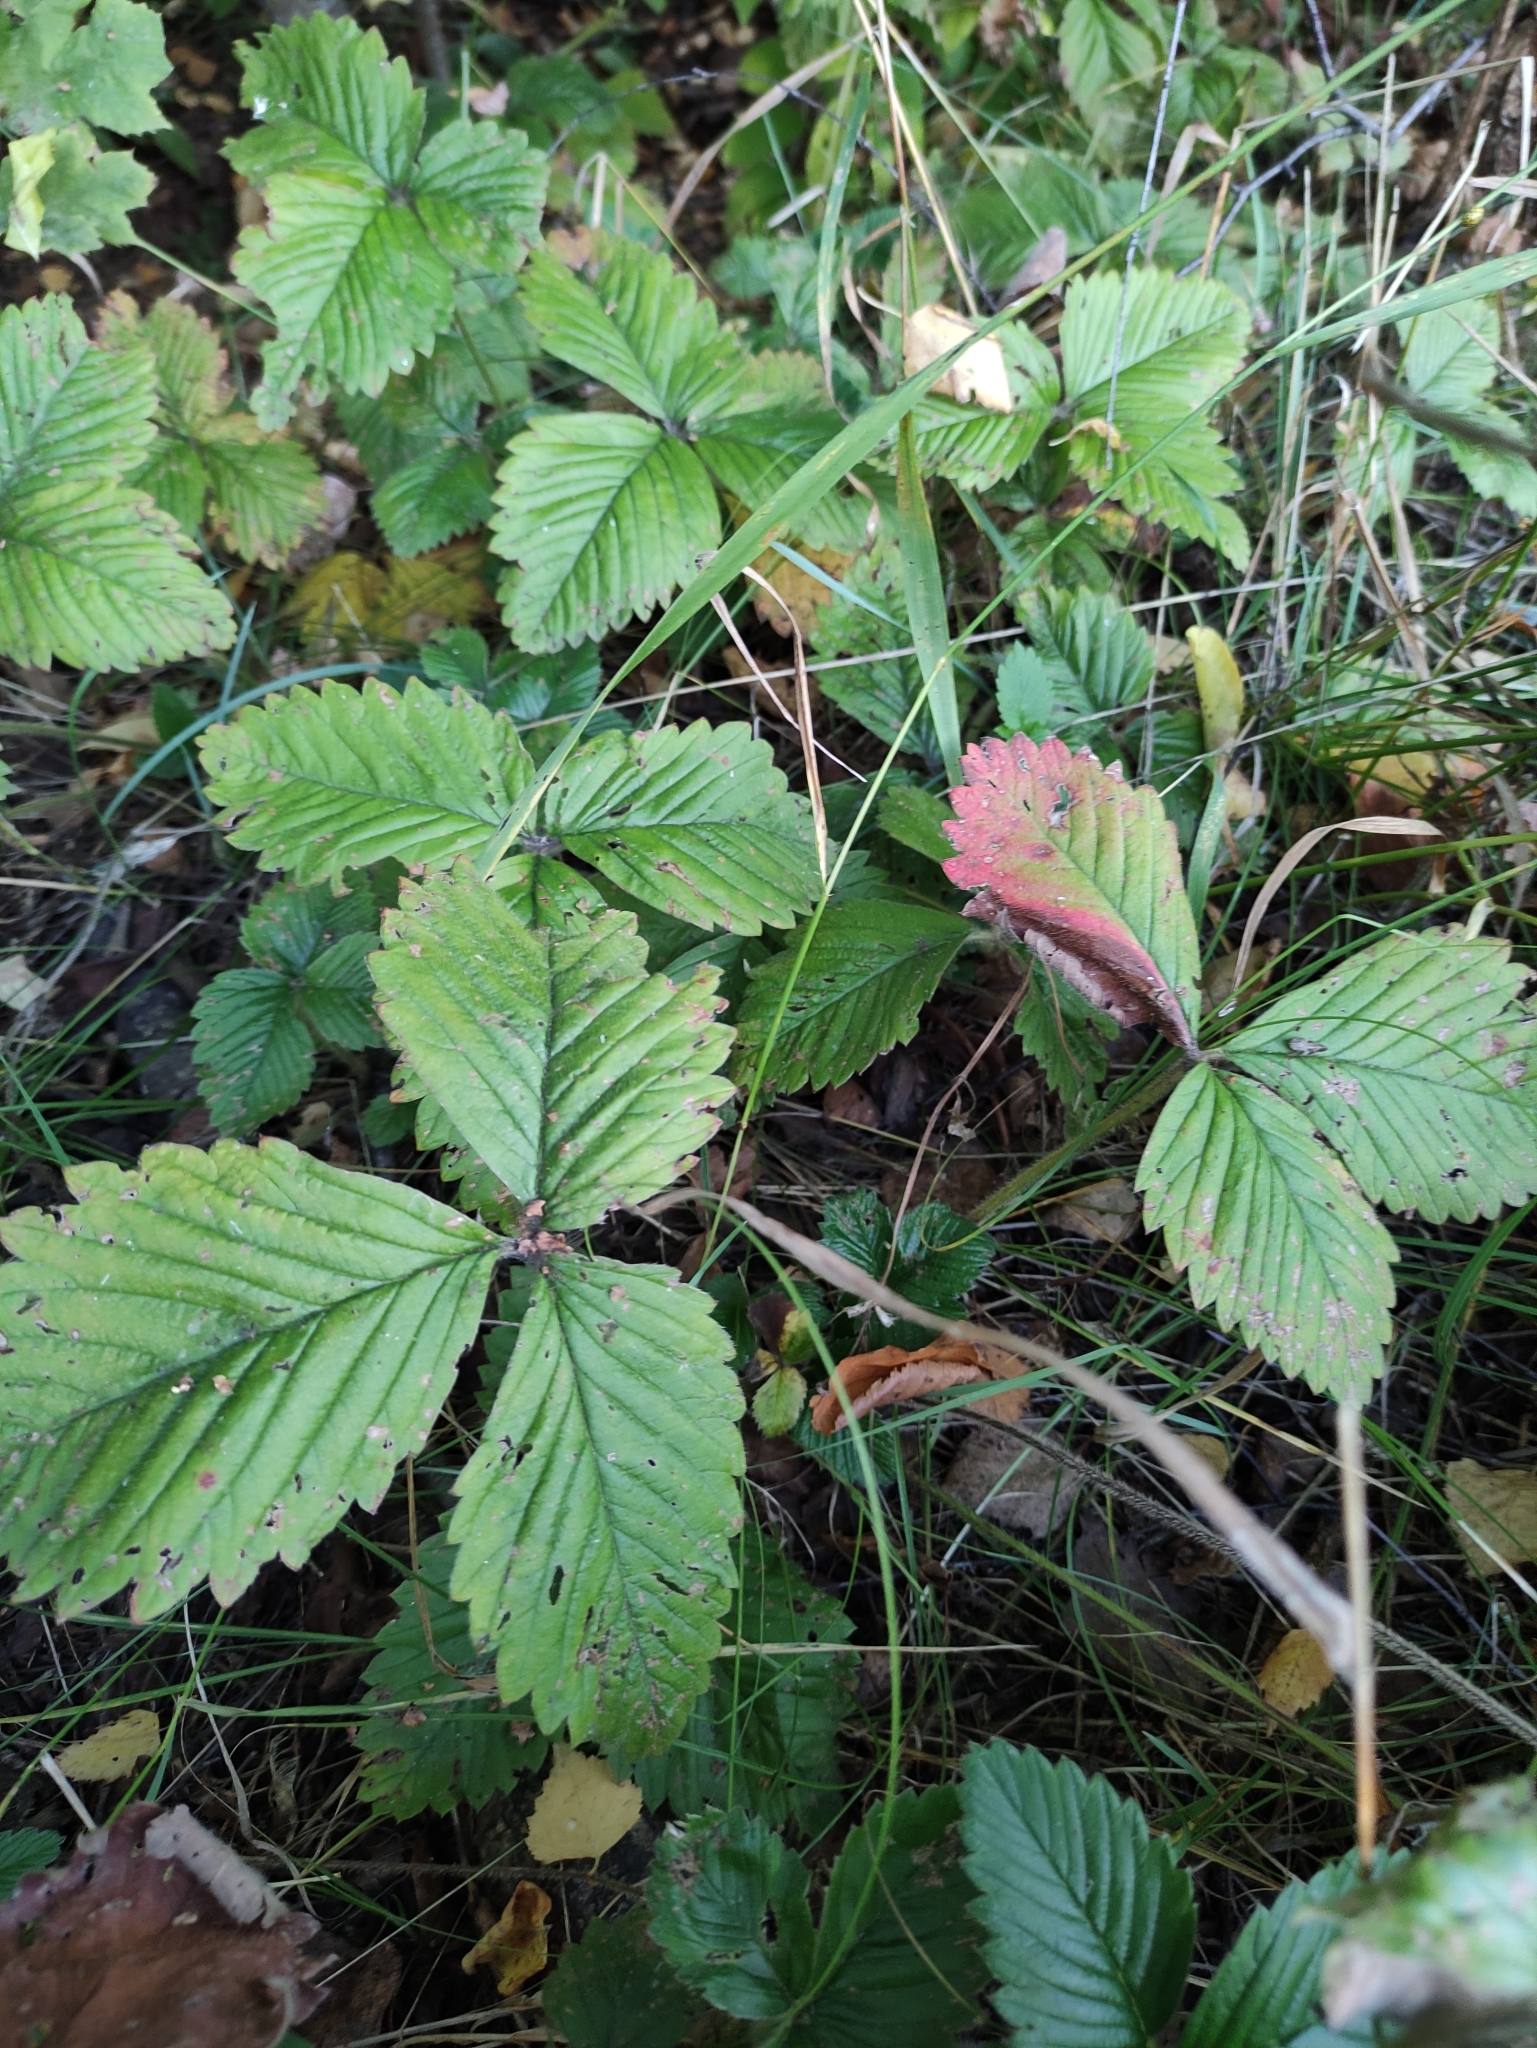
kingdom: Plantae
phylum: Tracheophyta
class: Magnoliopsida
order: Rosales
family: Rosaceae
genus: Fragaria
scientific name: Fragaria moschata
